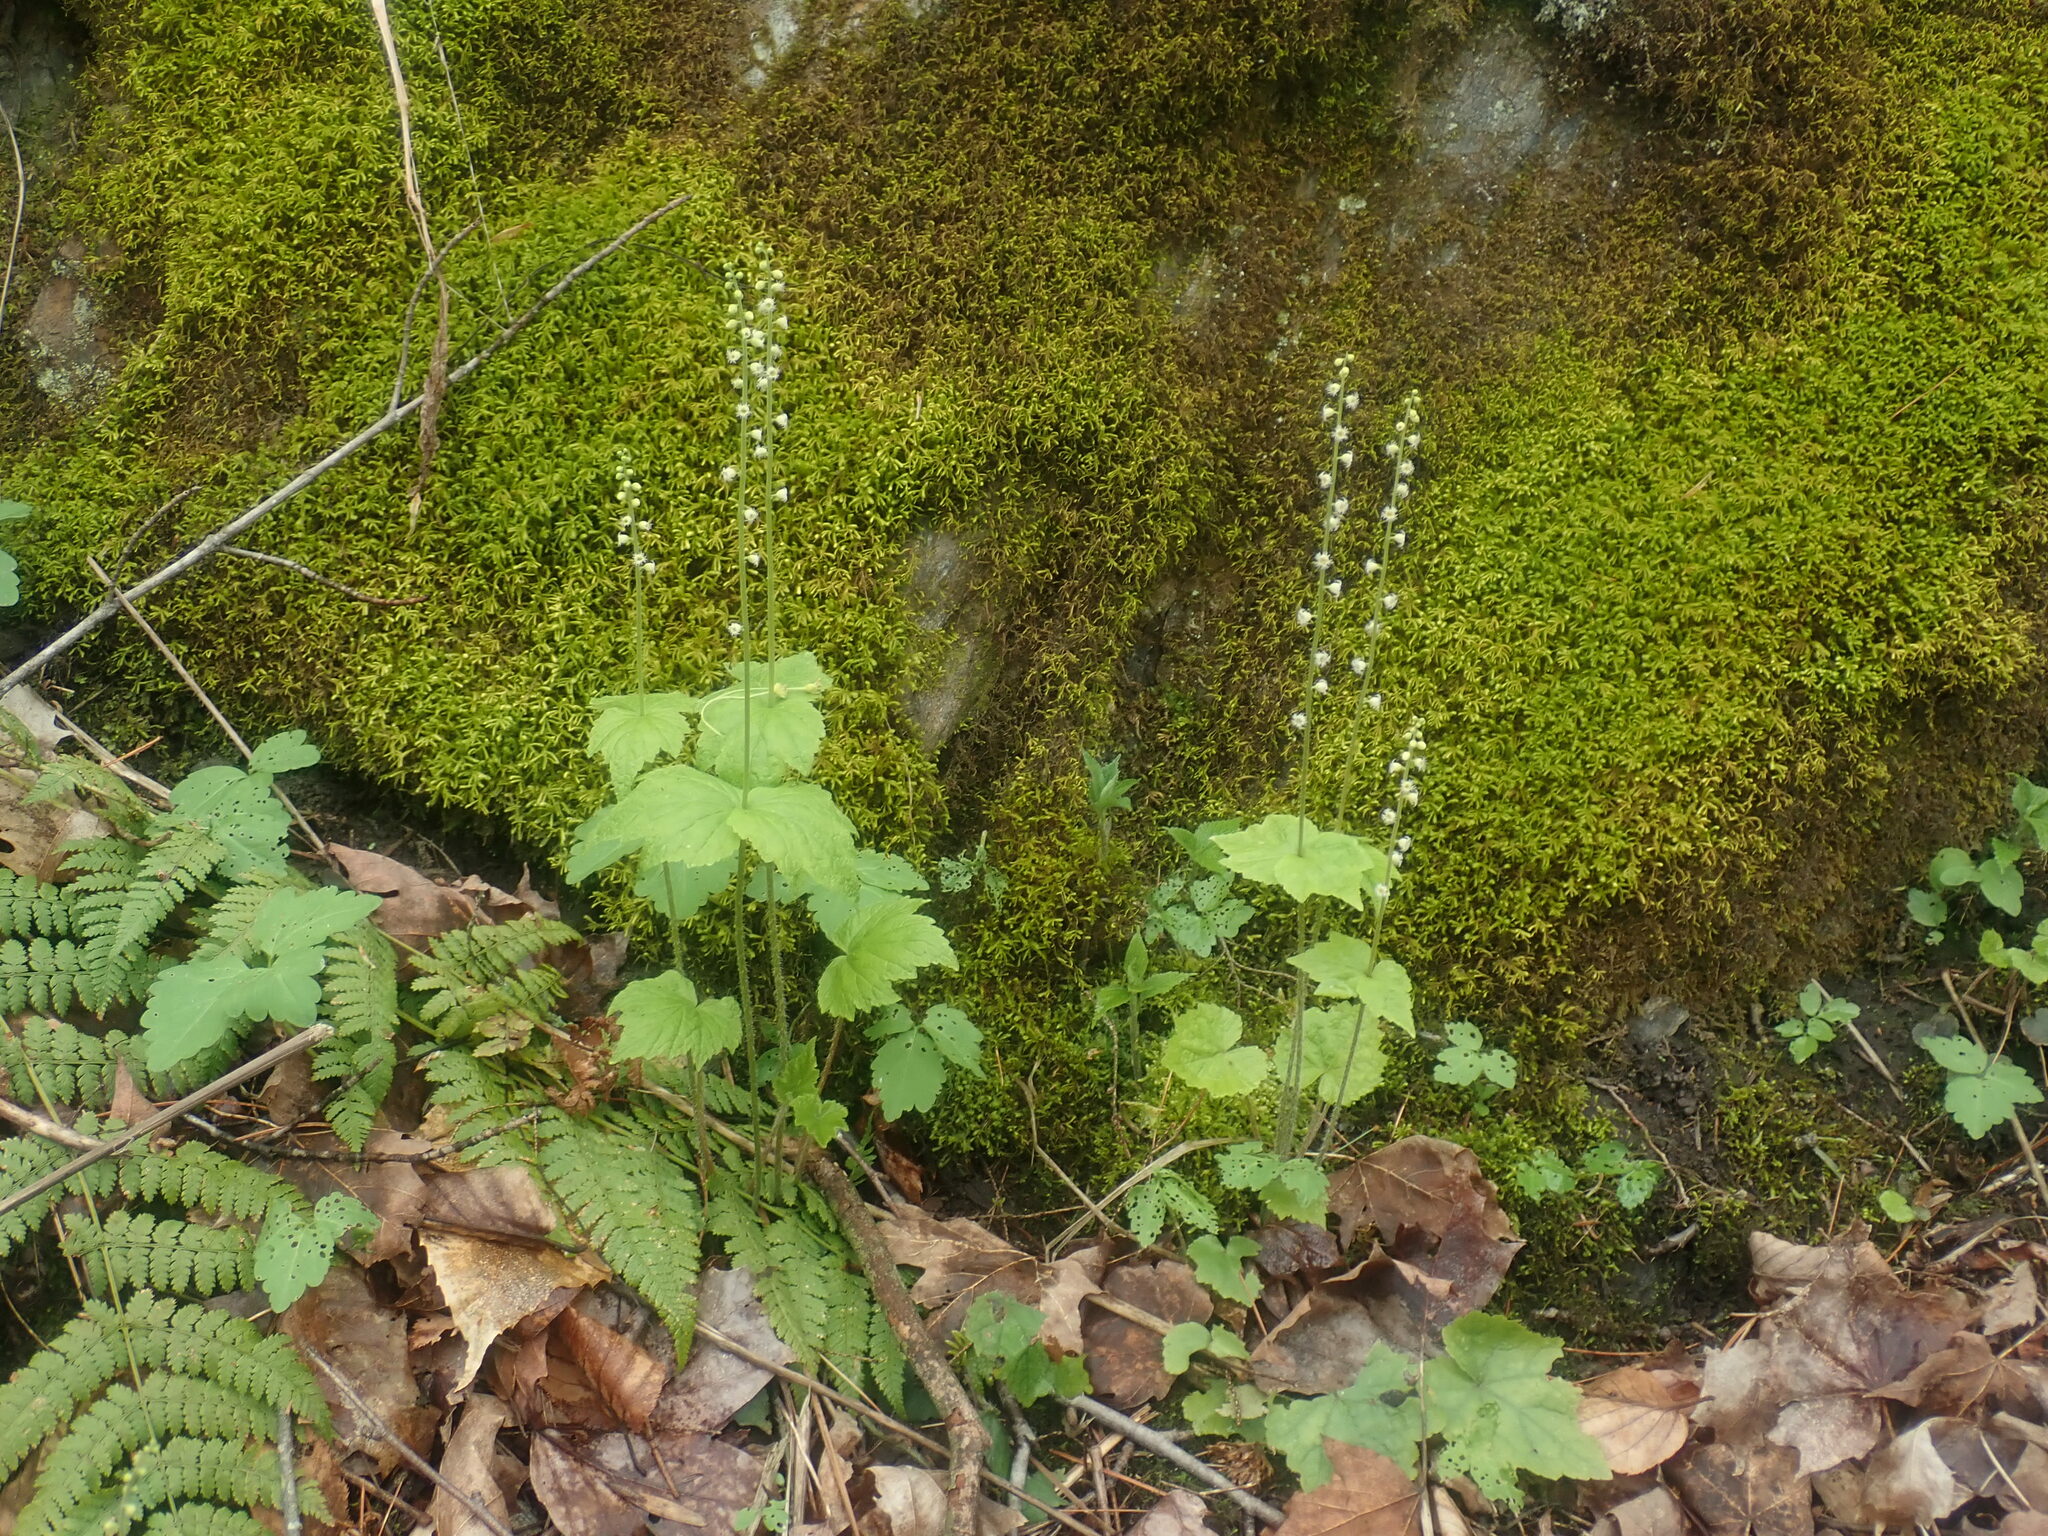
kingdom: Plantae
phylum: Tracheophyta
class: Magnoliopsida
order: Saxifragales
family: Saxifragaceae
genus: Mitella
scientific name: Mitella diphylla
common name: Coolwort
